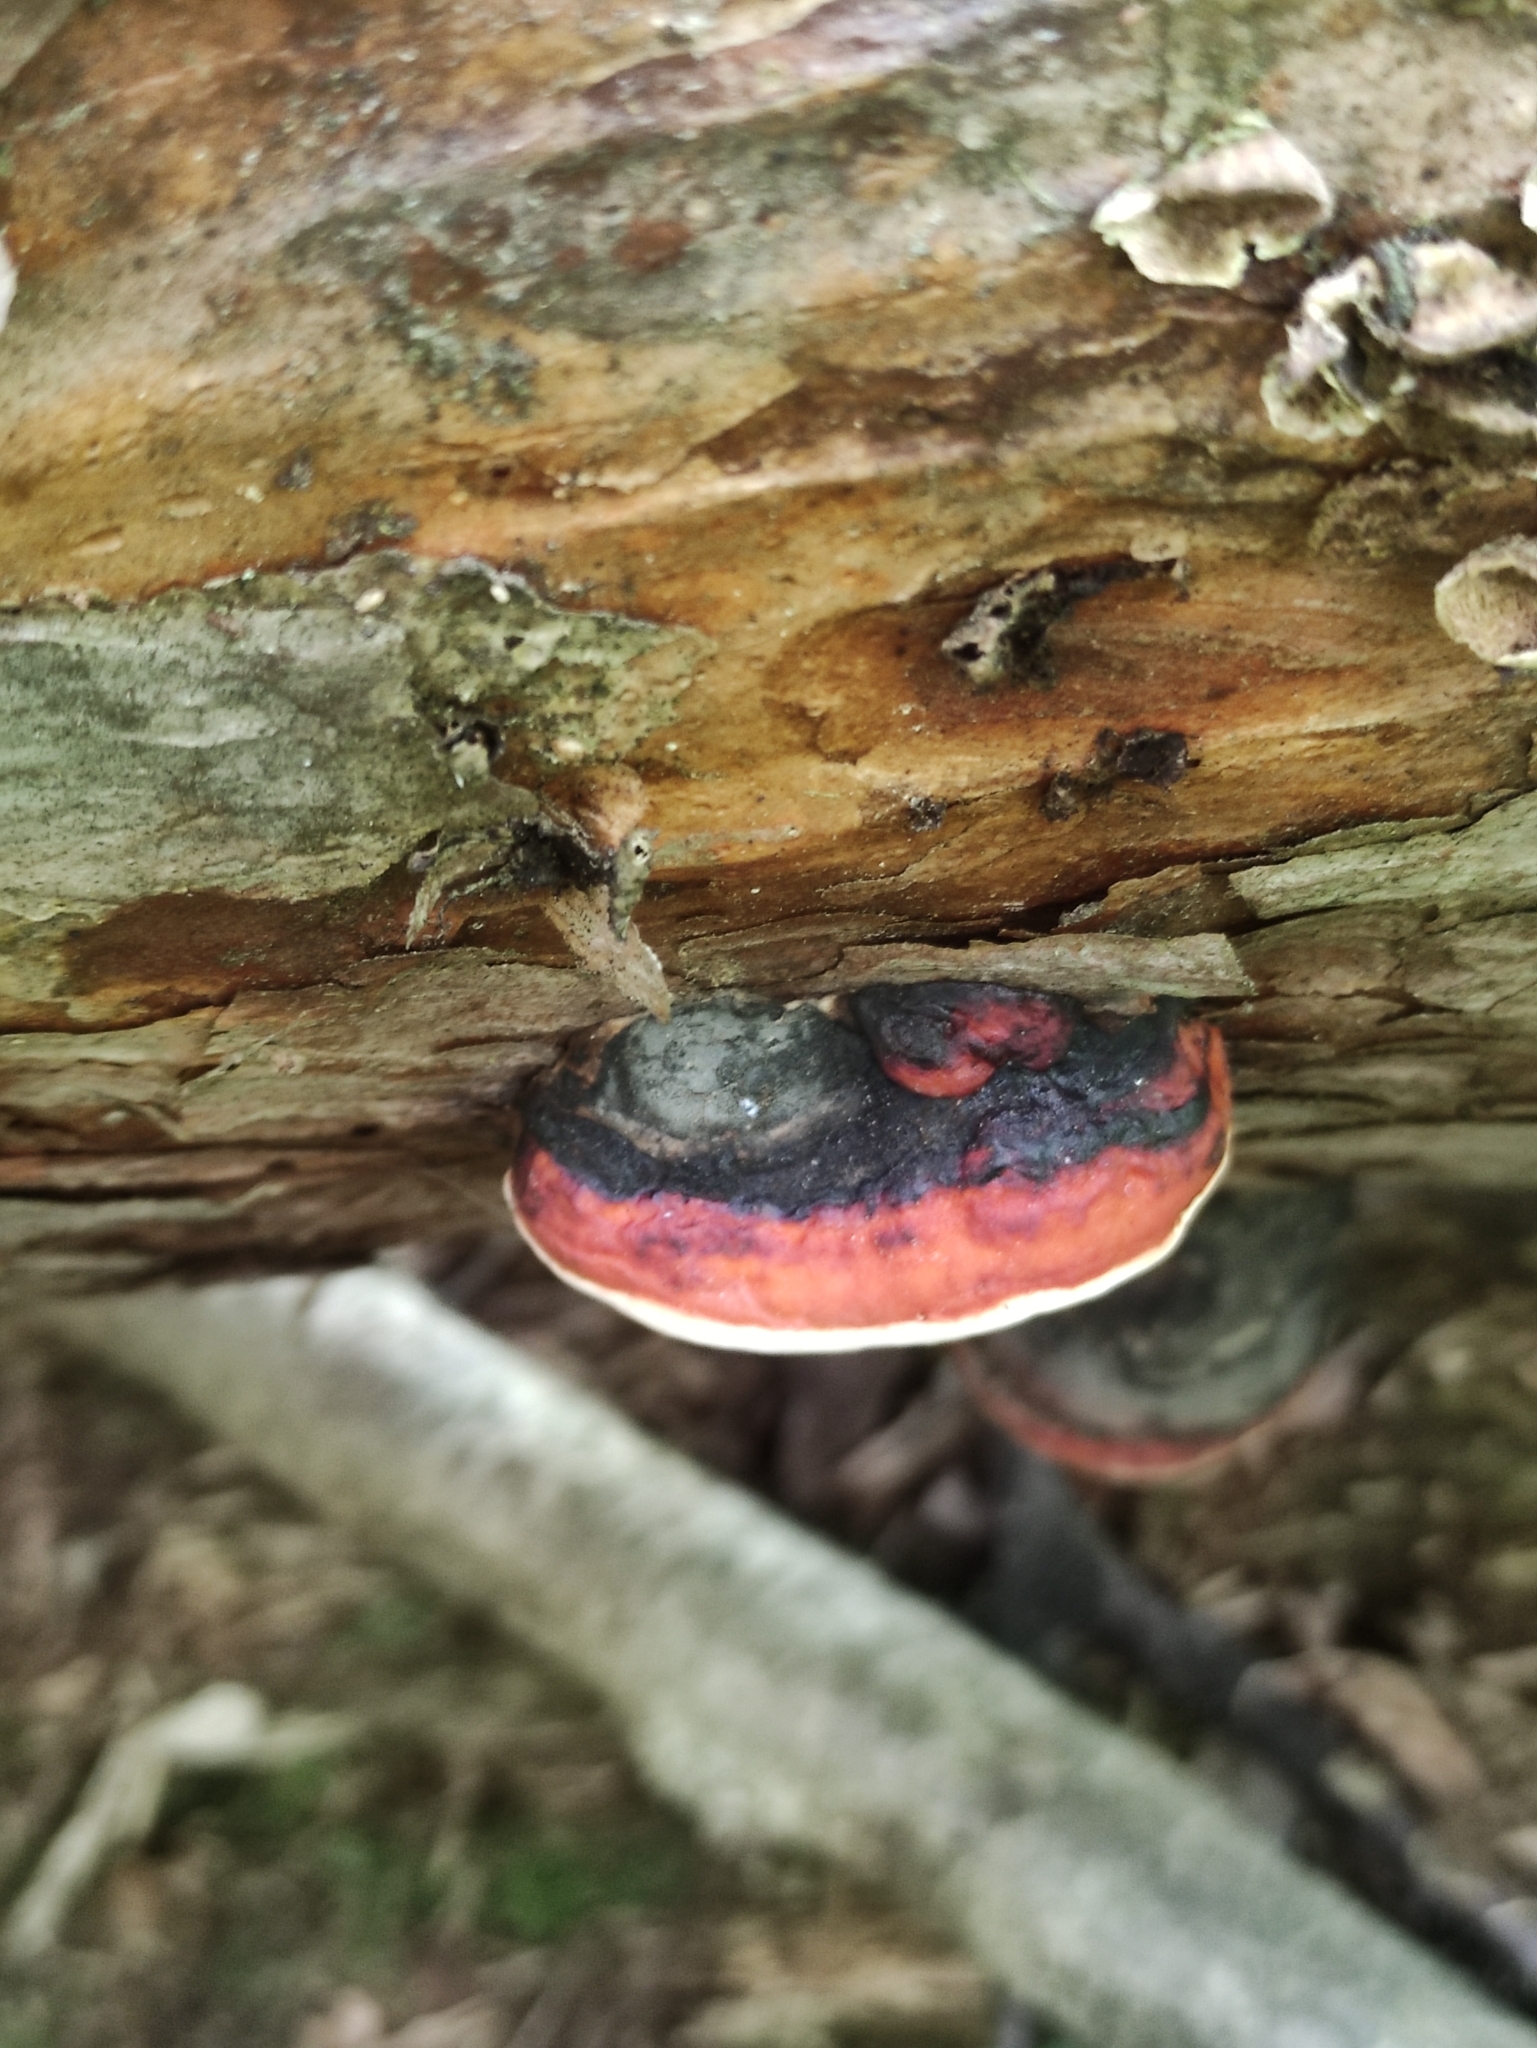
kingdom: Fungi
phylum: Basidiomycota
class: Agaricomycetes
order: Polyporales
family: Fomitopsidaceae
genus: Fomitopsis
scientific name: Fomitopsis pinicola
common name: Red-belted bracket
